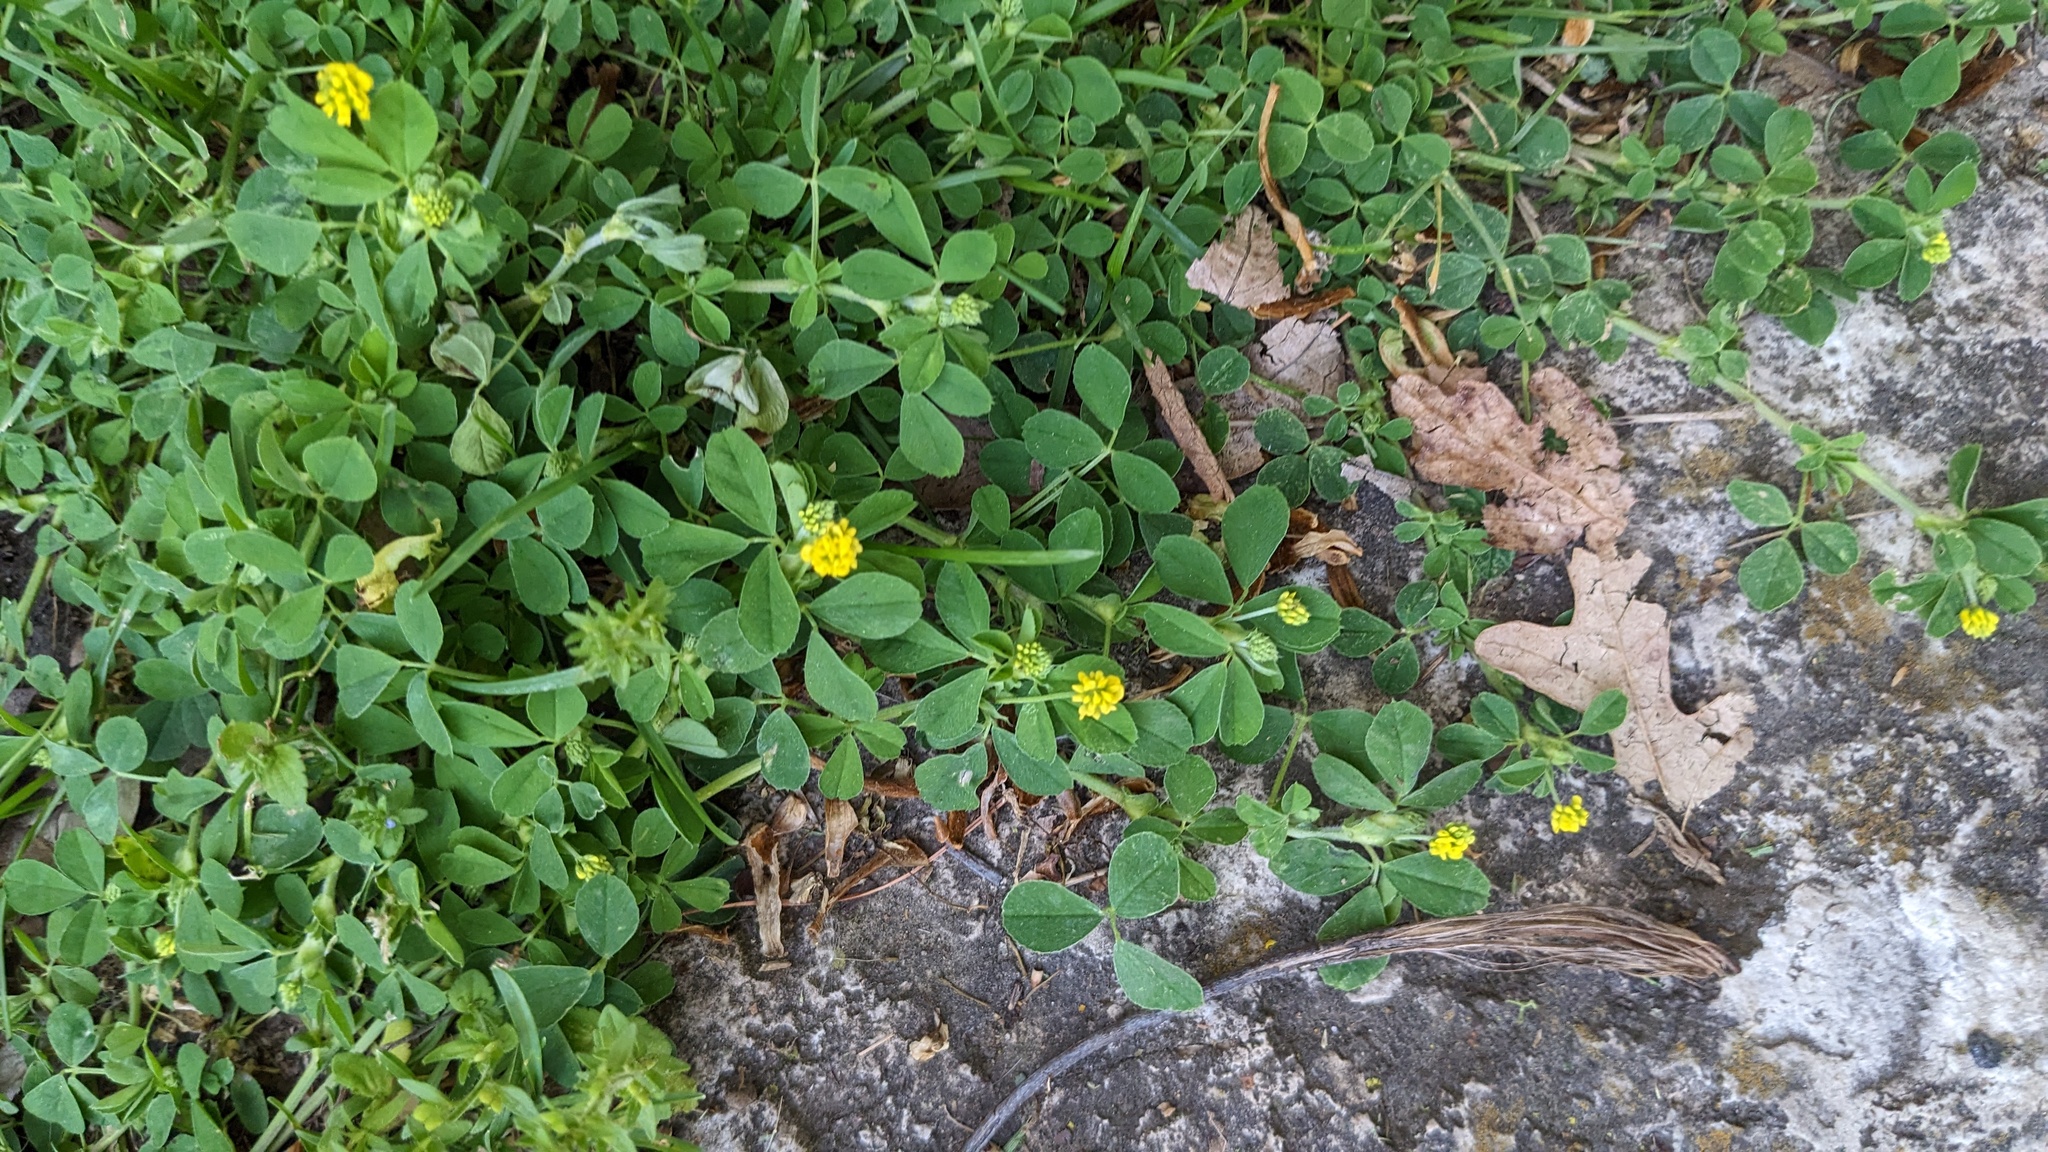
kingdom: Plantae
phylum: Tracheophyta
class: Magnoliopsida
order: Fabales
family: Fabaceae
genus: Medicago
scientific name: Medicago lupulina
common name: Black medick
